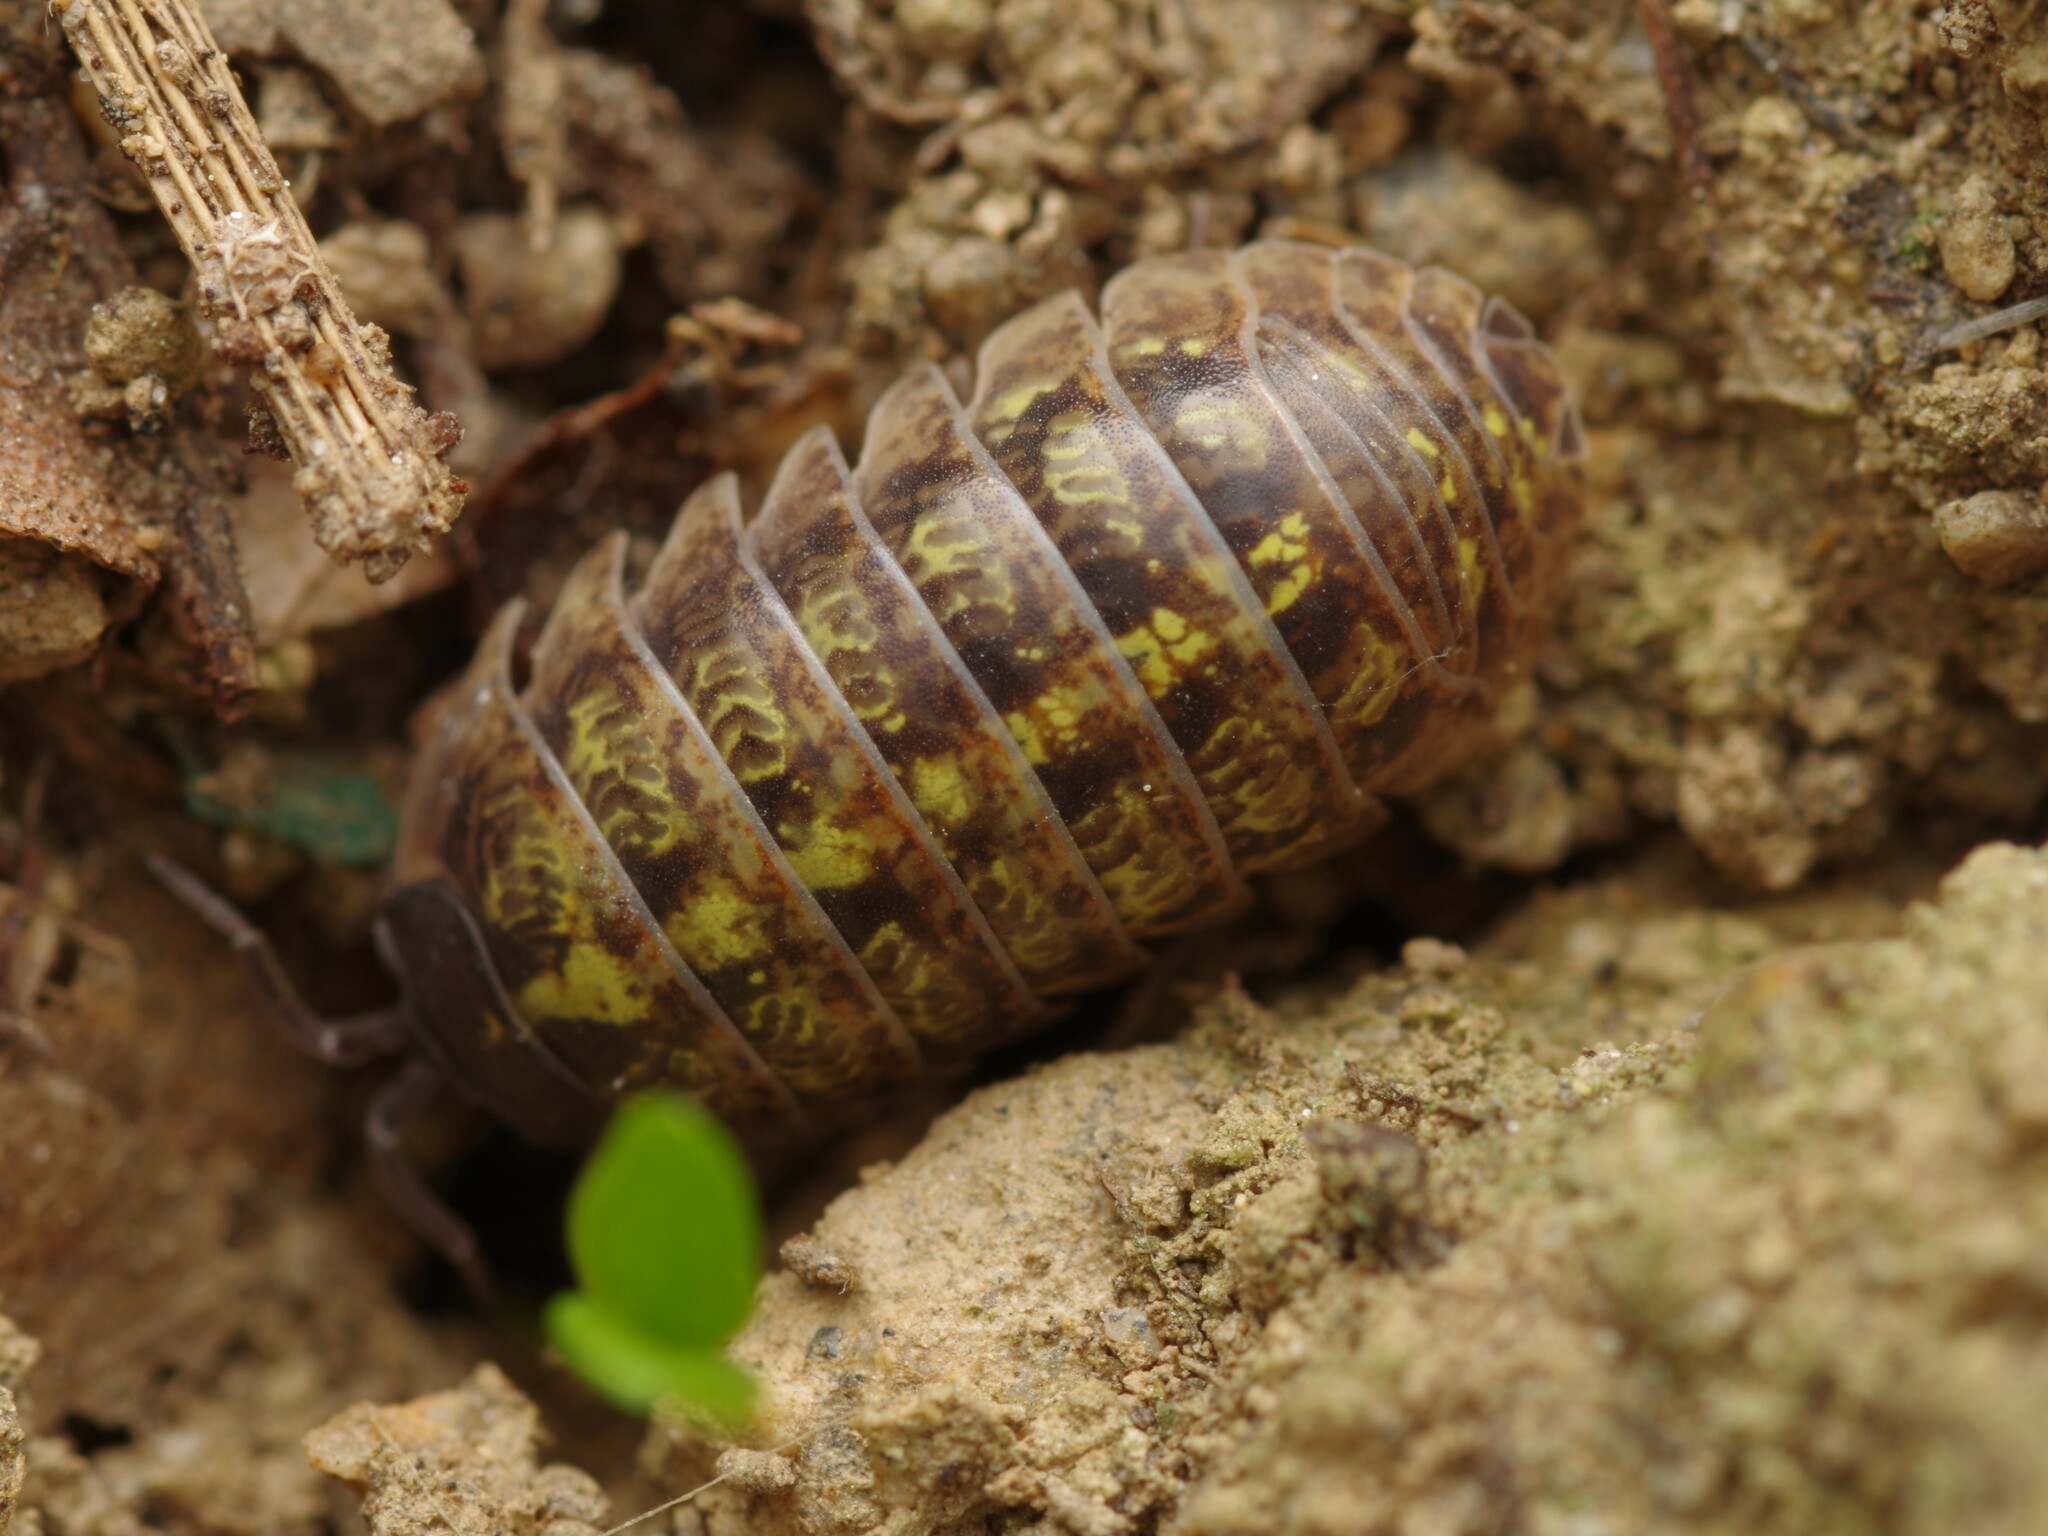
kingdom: Animalia
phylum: Arthropoda
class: Malacostraca
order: Isopoda
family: Armadillidiidae
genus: Armadillidium
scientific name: Armadillidium vulgare
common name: Common pill woodlouse
